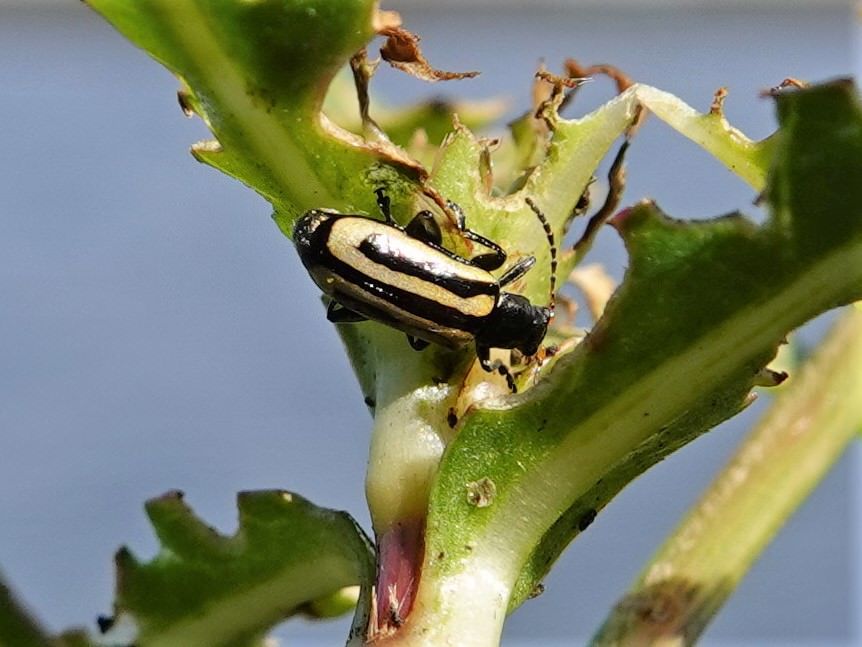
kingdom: Animalia
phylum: Arthropoda
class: Insecta
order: Coleoptera
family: Chrysomelidae
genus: Agasicles
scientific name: Agasicles hygrophila
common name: Alligatorweed flea beetle
